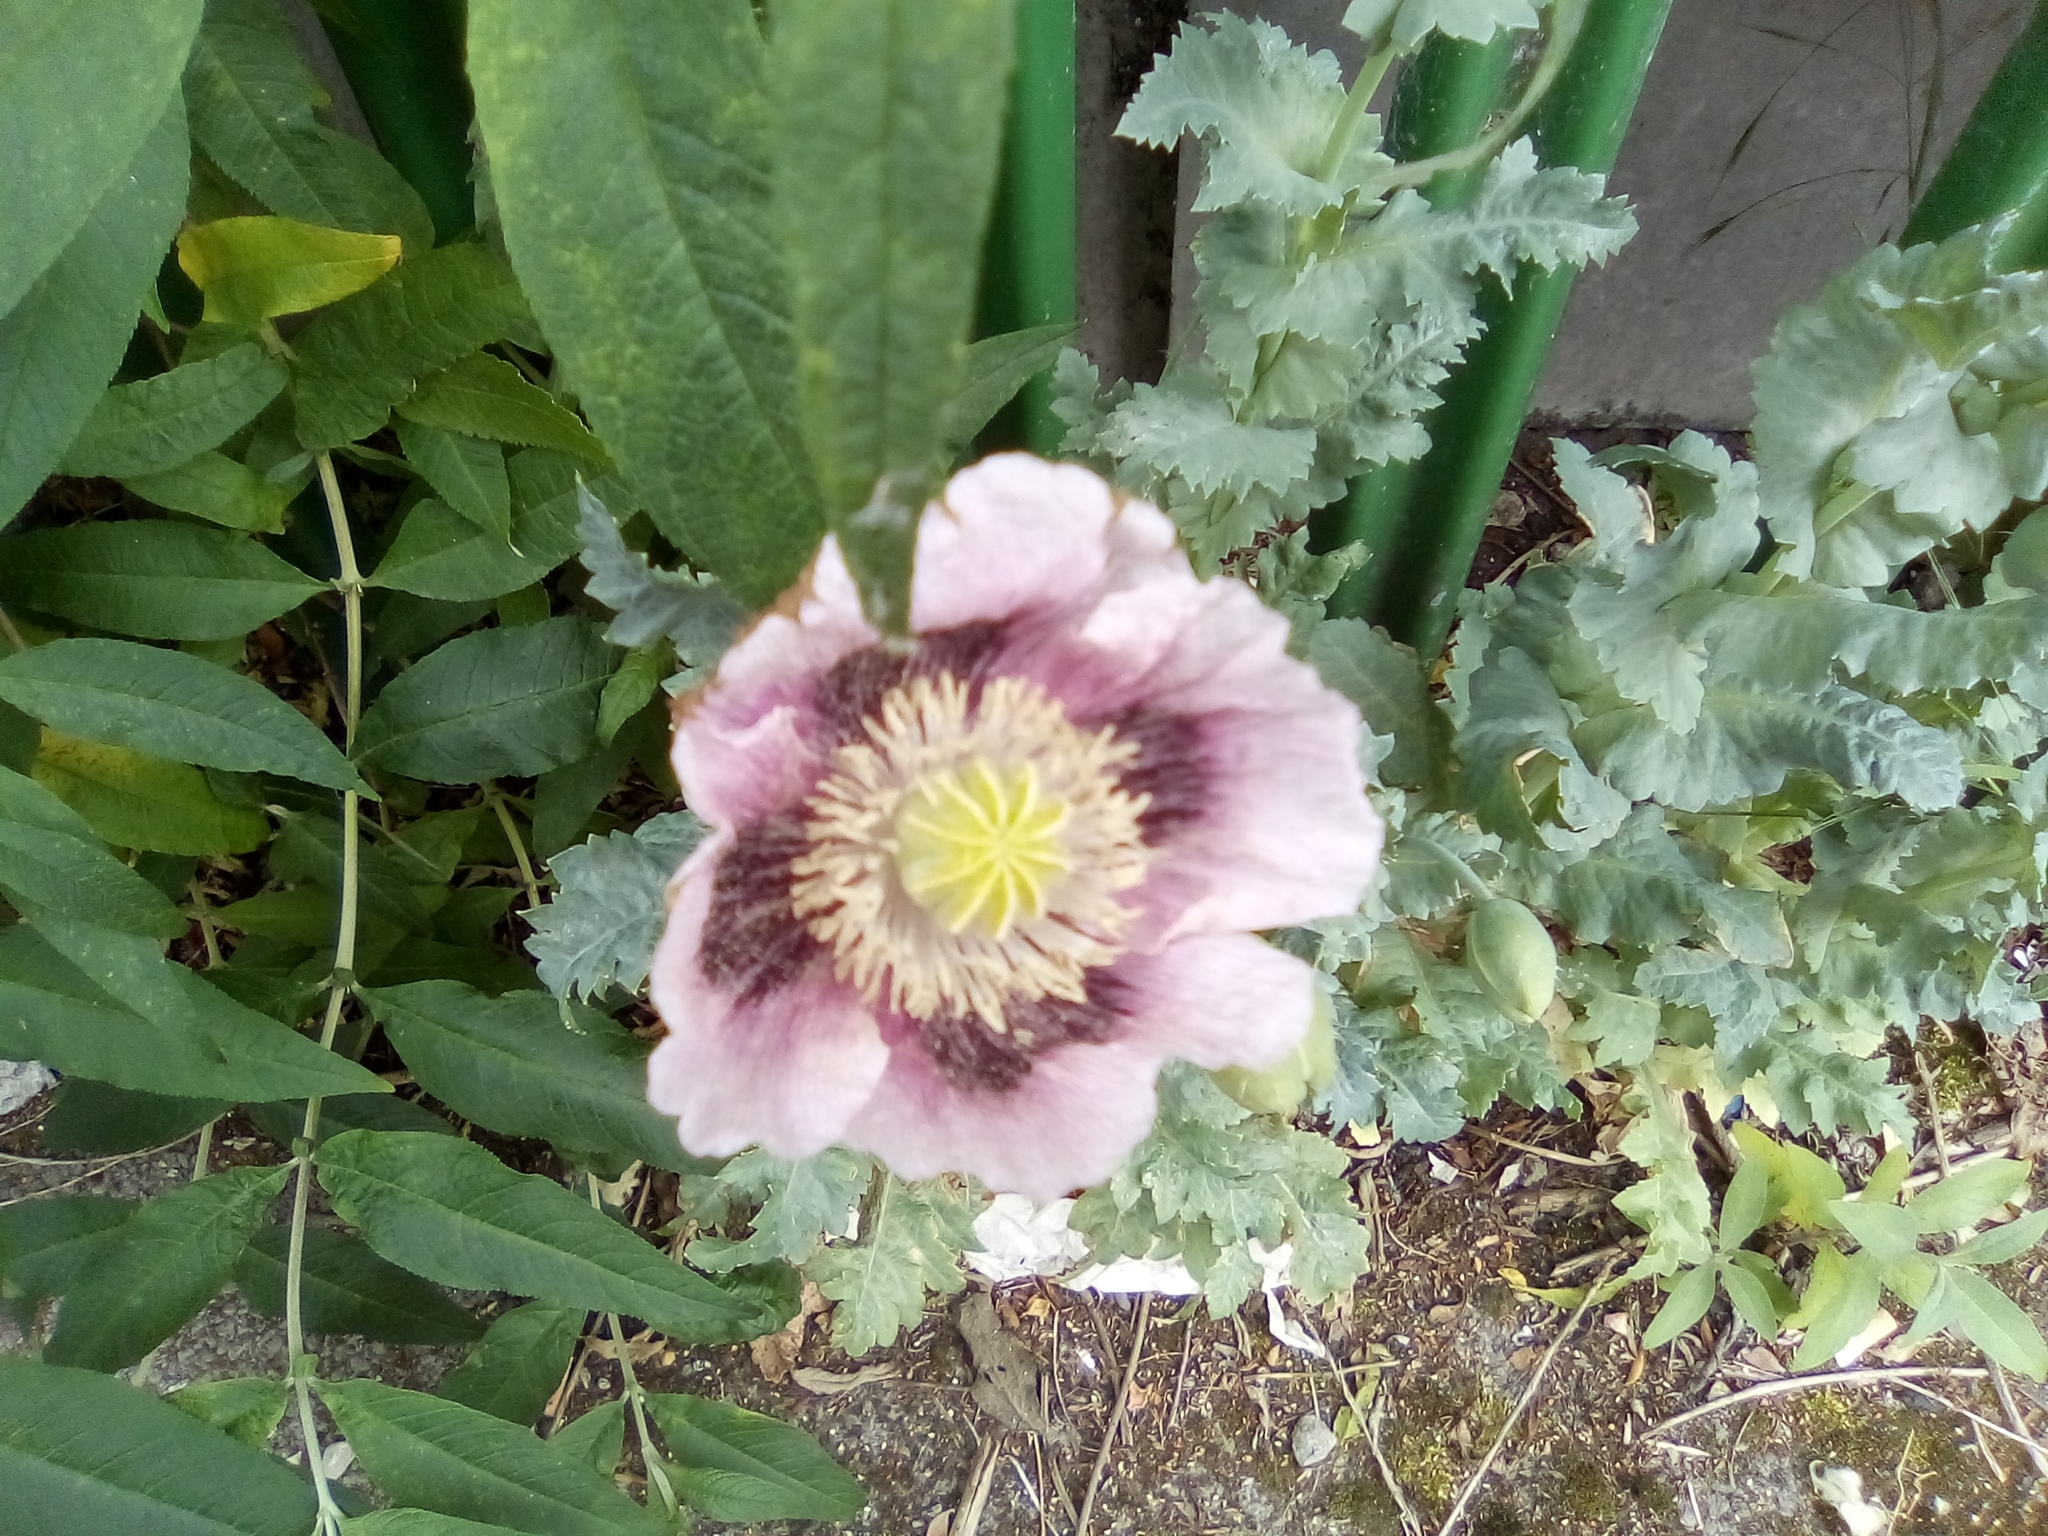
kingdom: Plantae
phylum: Tracheophyta
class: Magnoliopsida
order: Ranunculales
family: Papaveraceae
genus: Papaver
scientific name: Papaver somniferum
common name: Opium poppy
